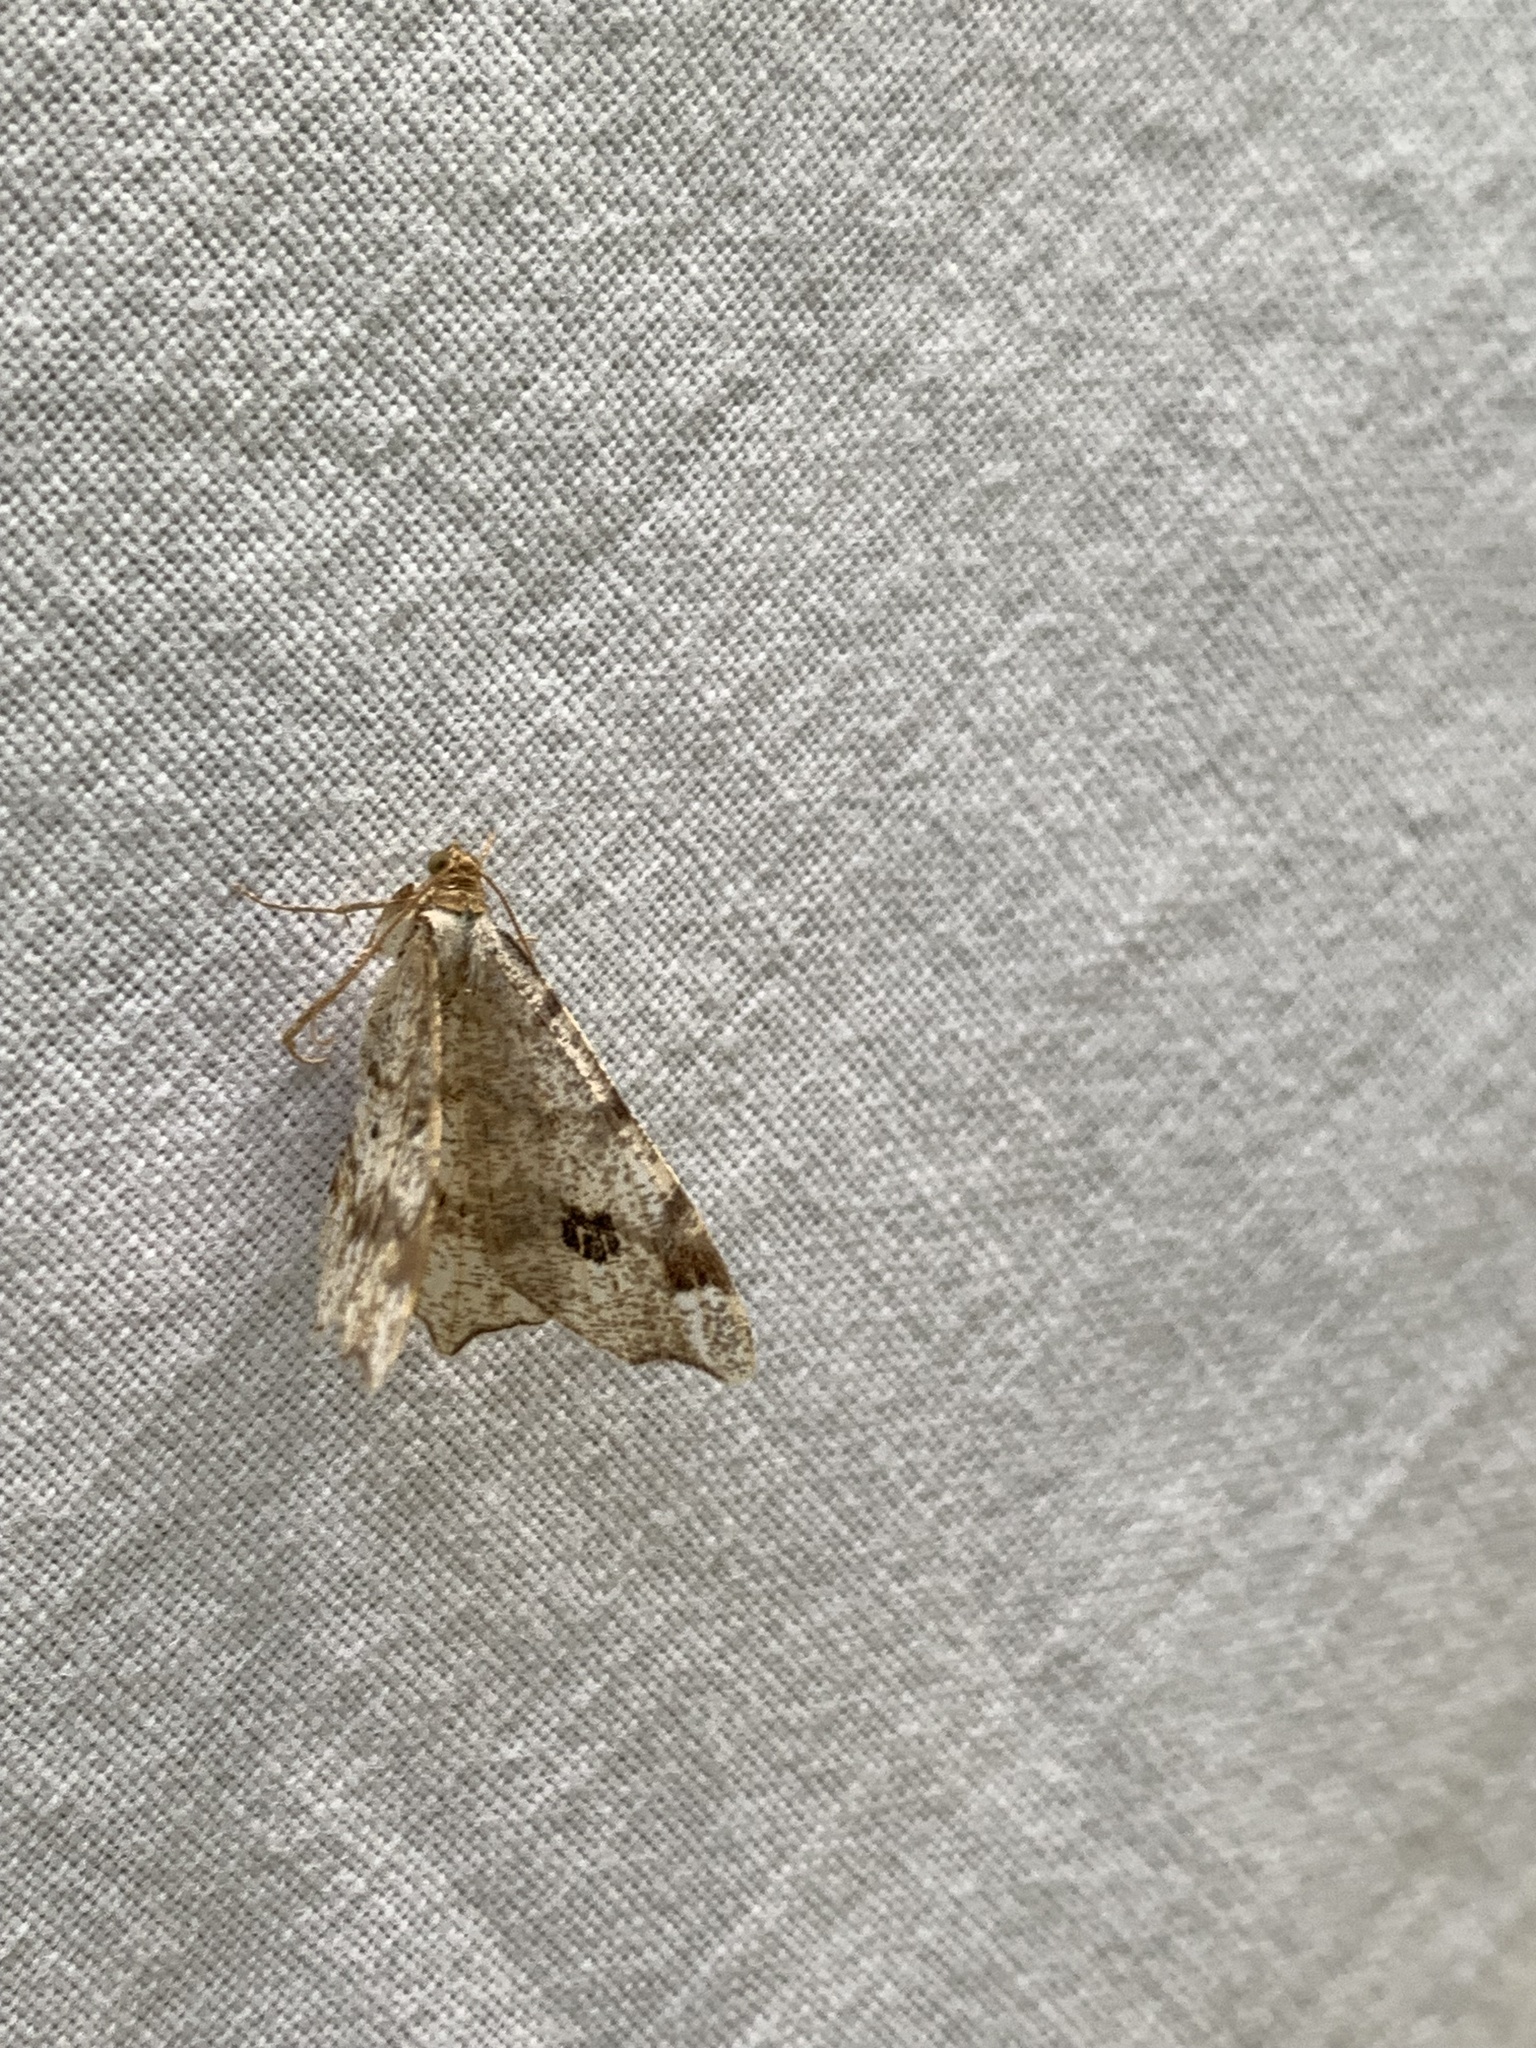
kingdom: Animalia
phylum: Arthropoda
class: Insecta
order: Lepidoptera
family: Geometridae
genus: Macaria
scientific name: Macaria notata
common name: Peacock moth
